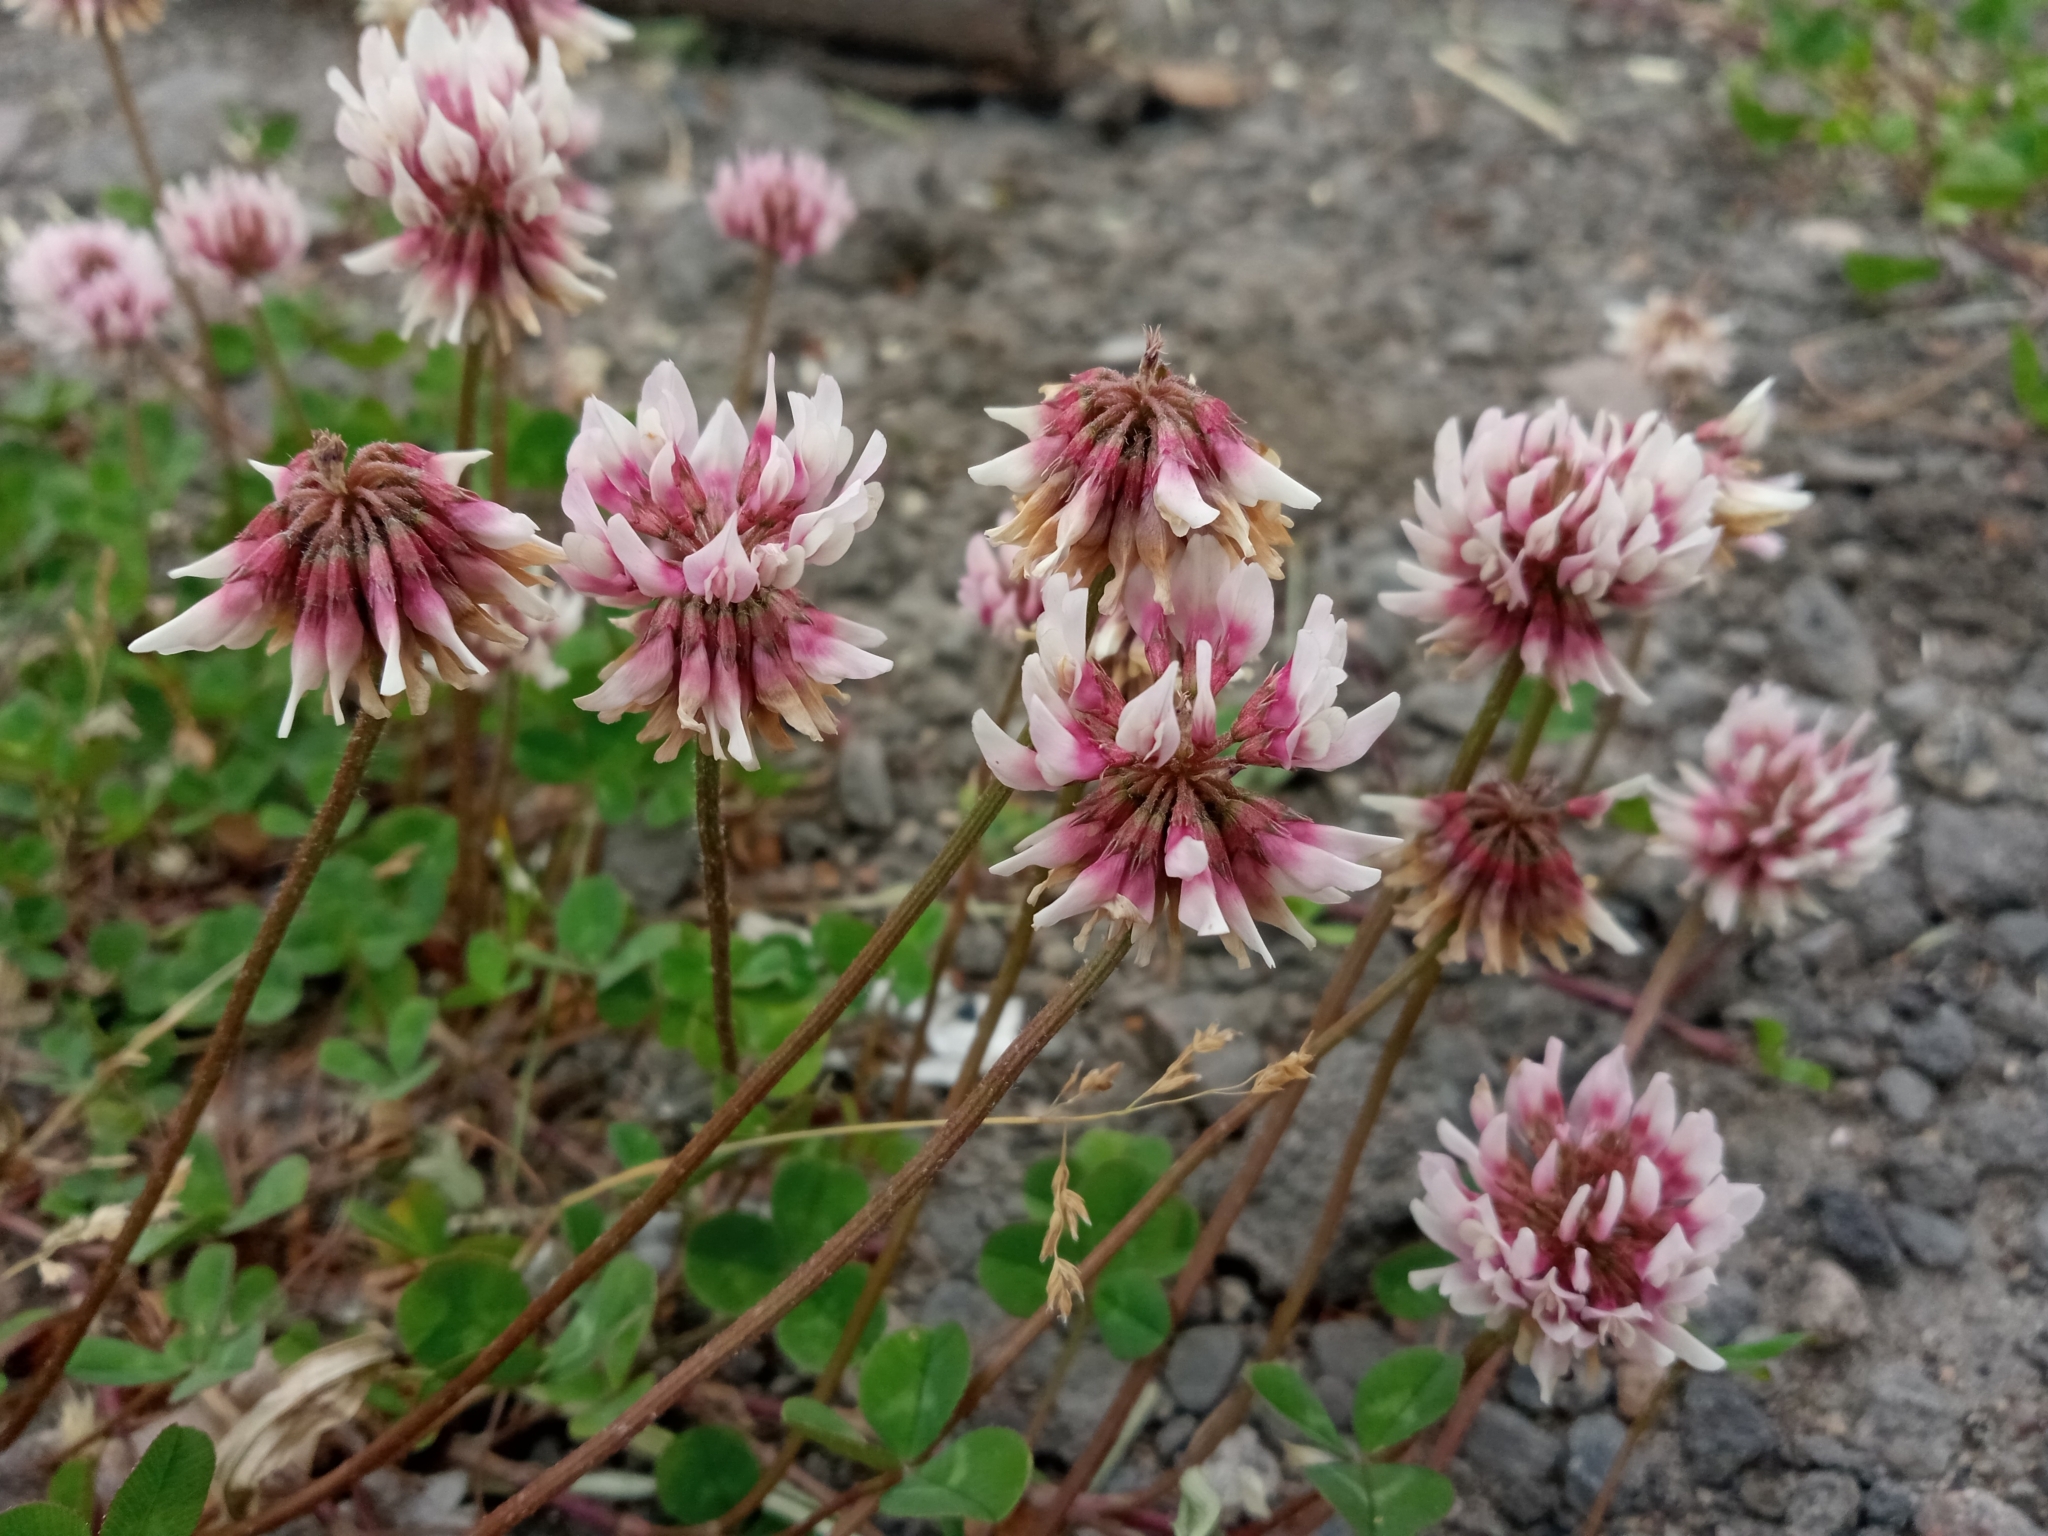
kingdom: Plantae
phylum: Tracheophyta
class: Magnoliopsida
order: Fabales
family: Fabaceae
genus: Trifolium
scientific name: Trifolium repens
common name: White clover
